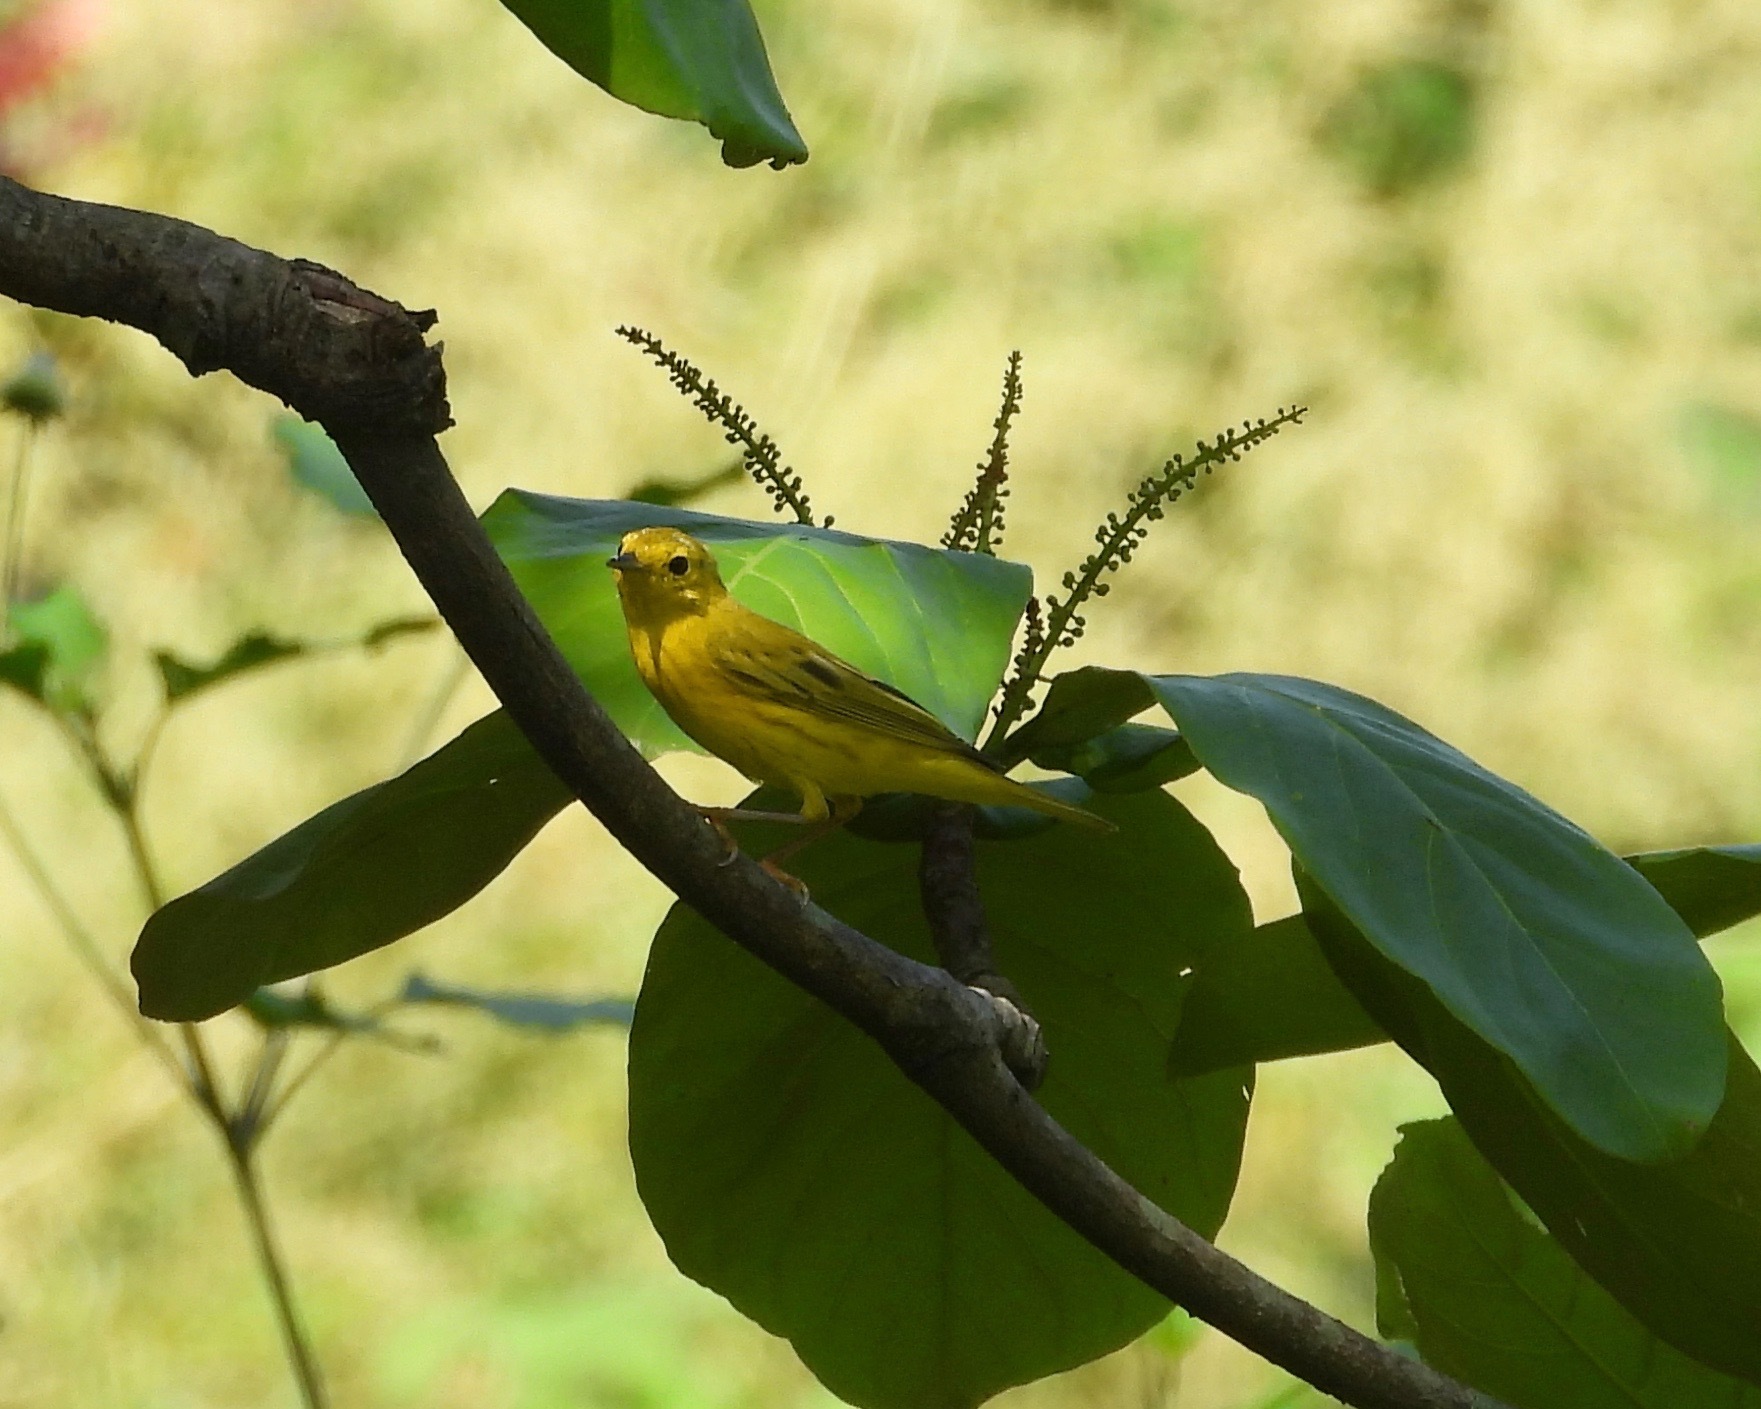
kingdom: Animalia
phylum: Chordata
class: Aves
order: Passeriformes
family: Parulidae
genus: Setophaga
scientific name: Setophaga petechia
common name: Yellow warbler
